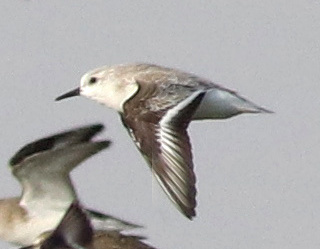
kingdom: Animalia
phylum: Chordata
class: Aves
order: Charadriiformes
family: Scolopacidae
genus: Calidris
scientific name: Calidris alba
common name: Sanderling
